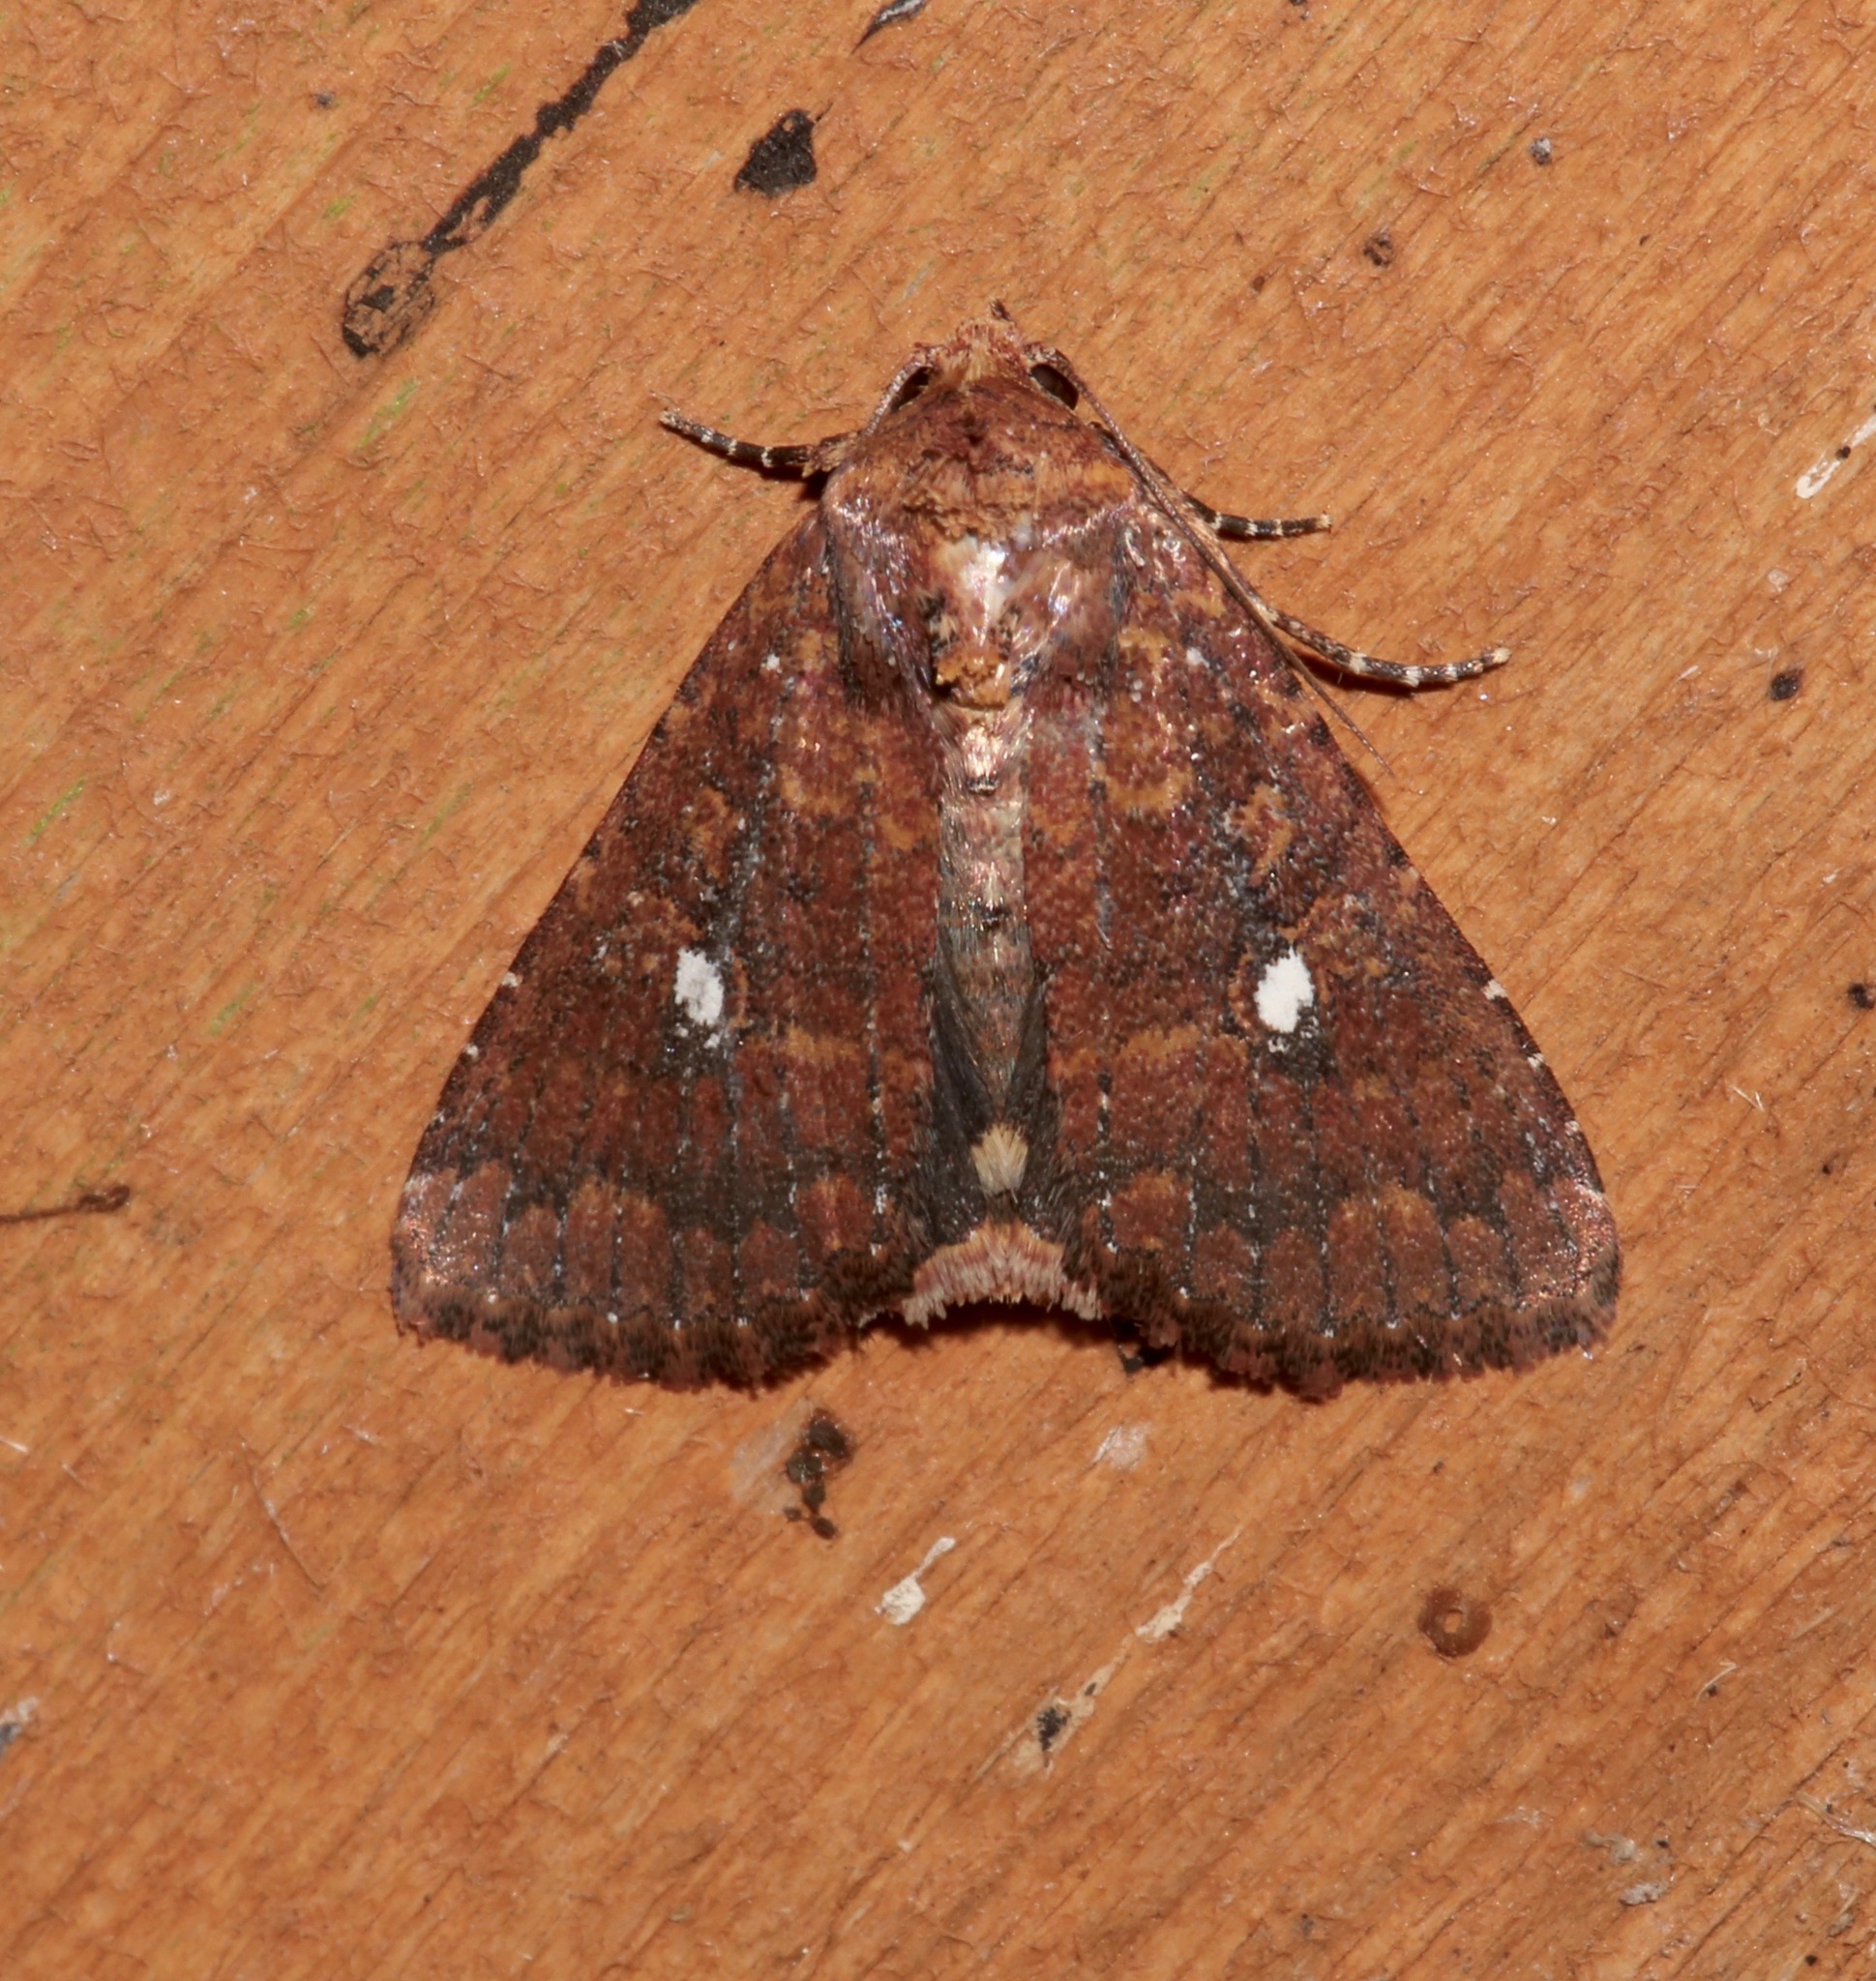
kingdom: Animalia
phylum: Arthropoda
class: Insecta
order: Lepidoptera
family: Noctuidae
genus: Condica
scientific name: Condica mobilis
